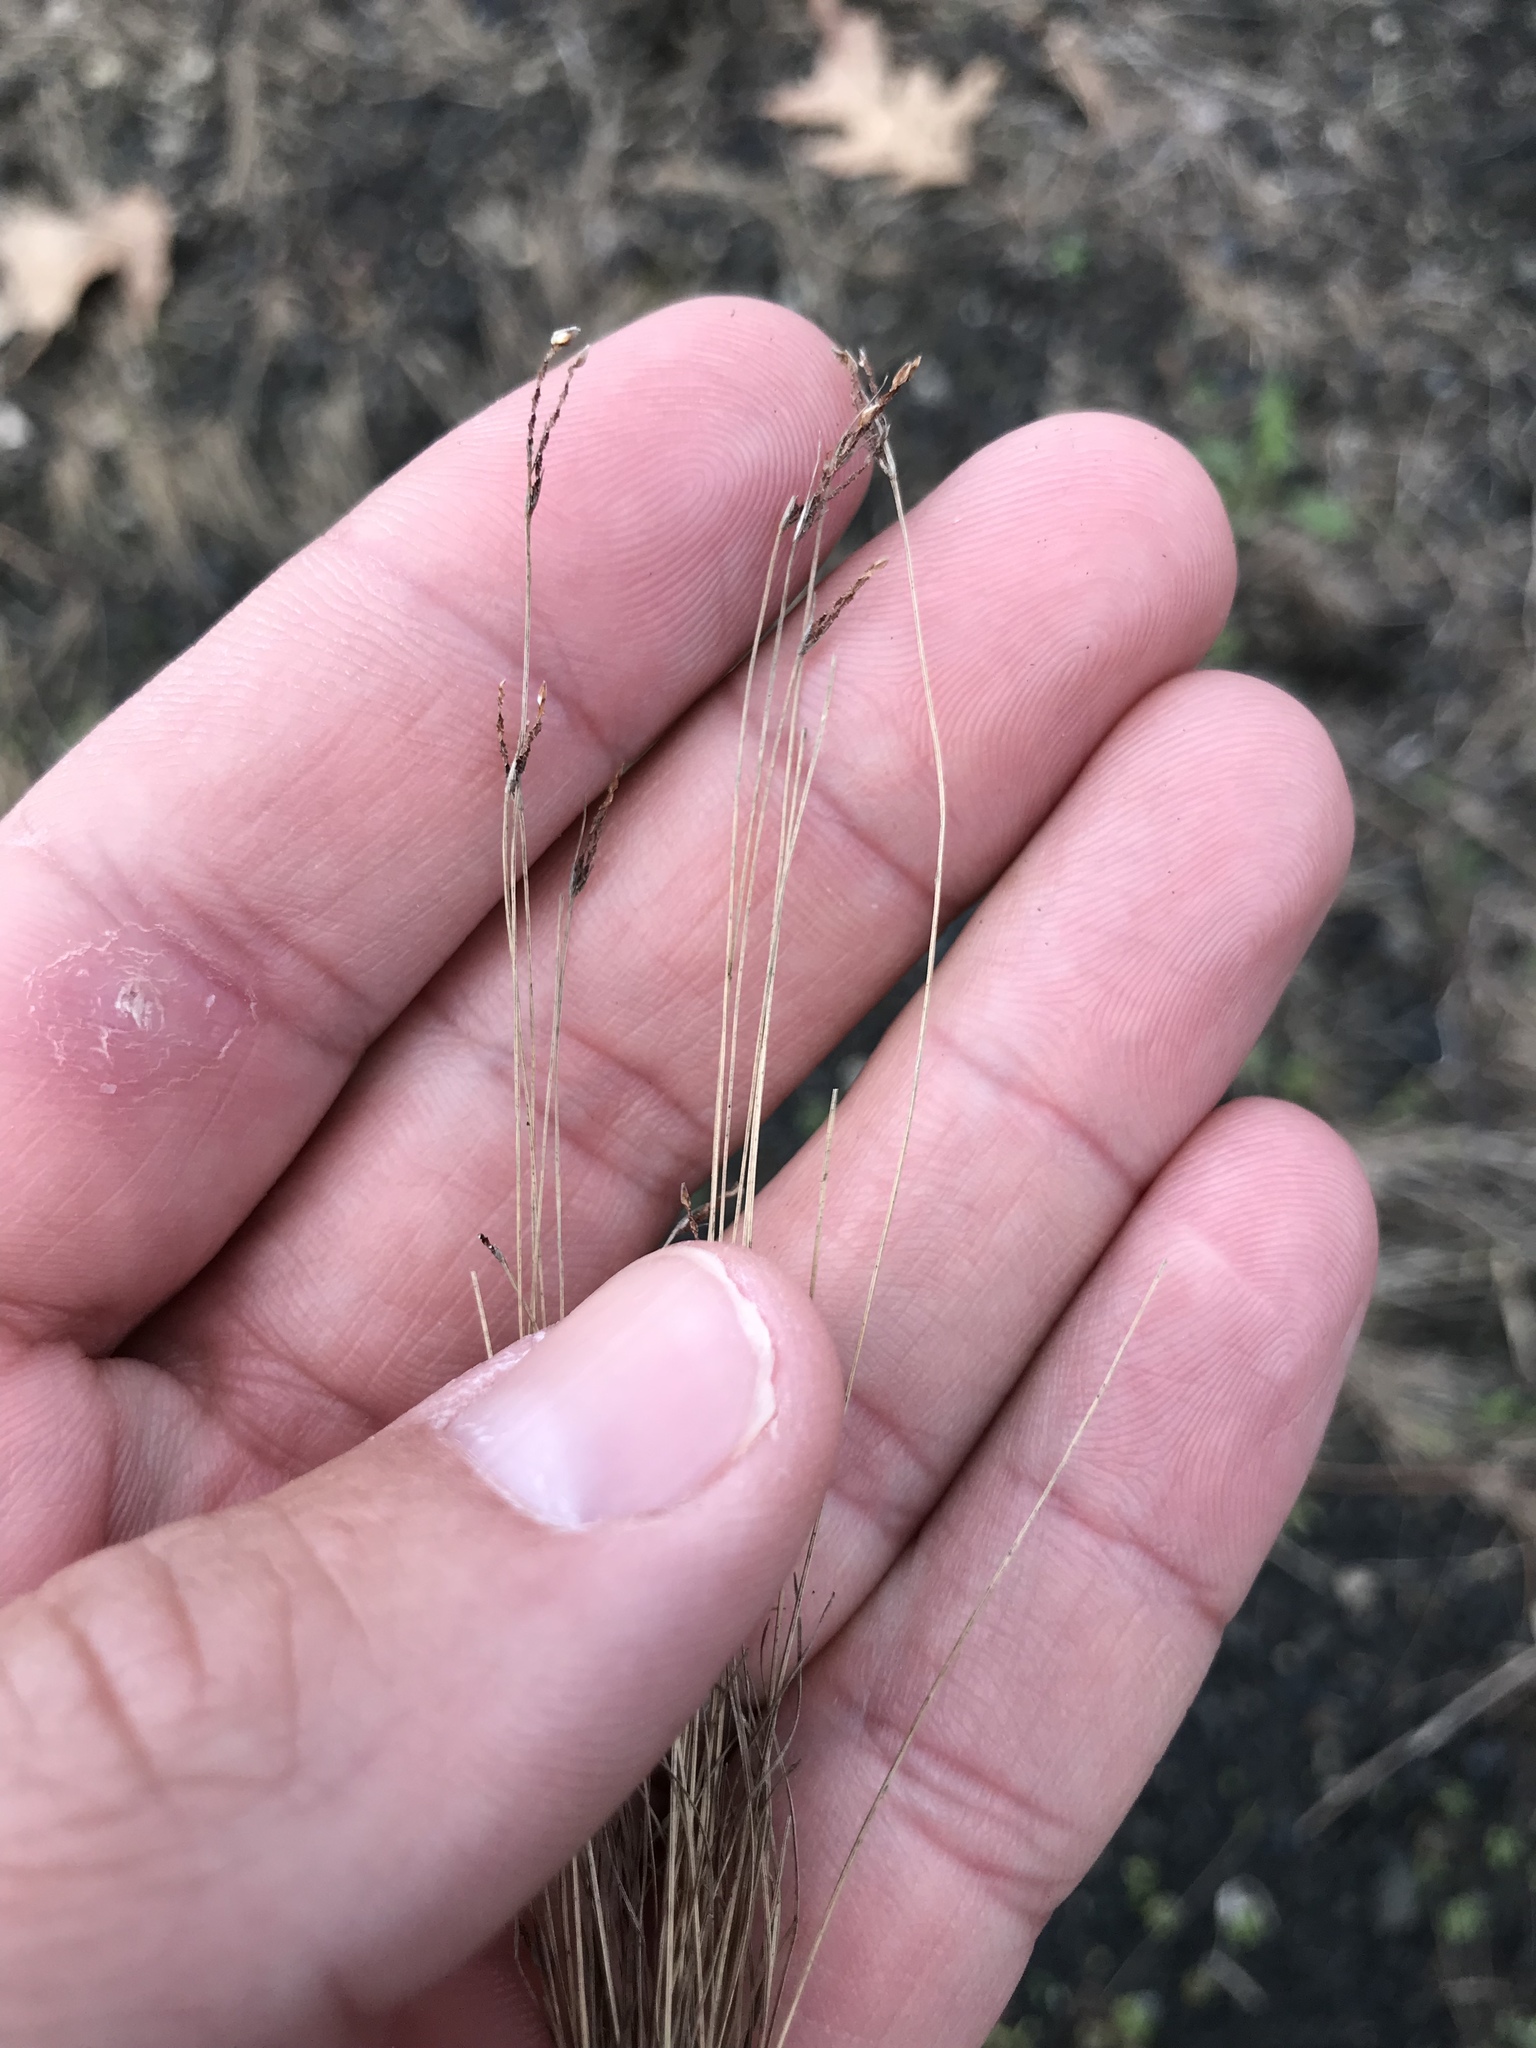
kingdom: Plantae
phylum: Tracheophyta
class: Liliopsida
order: Poales
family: Cyperaceae
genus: Bulbostylis
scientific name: Bulbostylis capillaris
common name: Densetuft hairsedge
